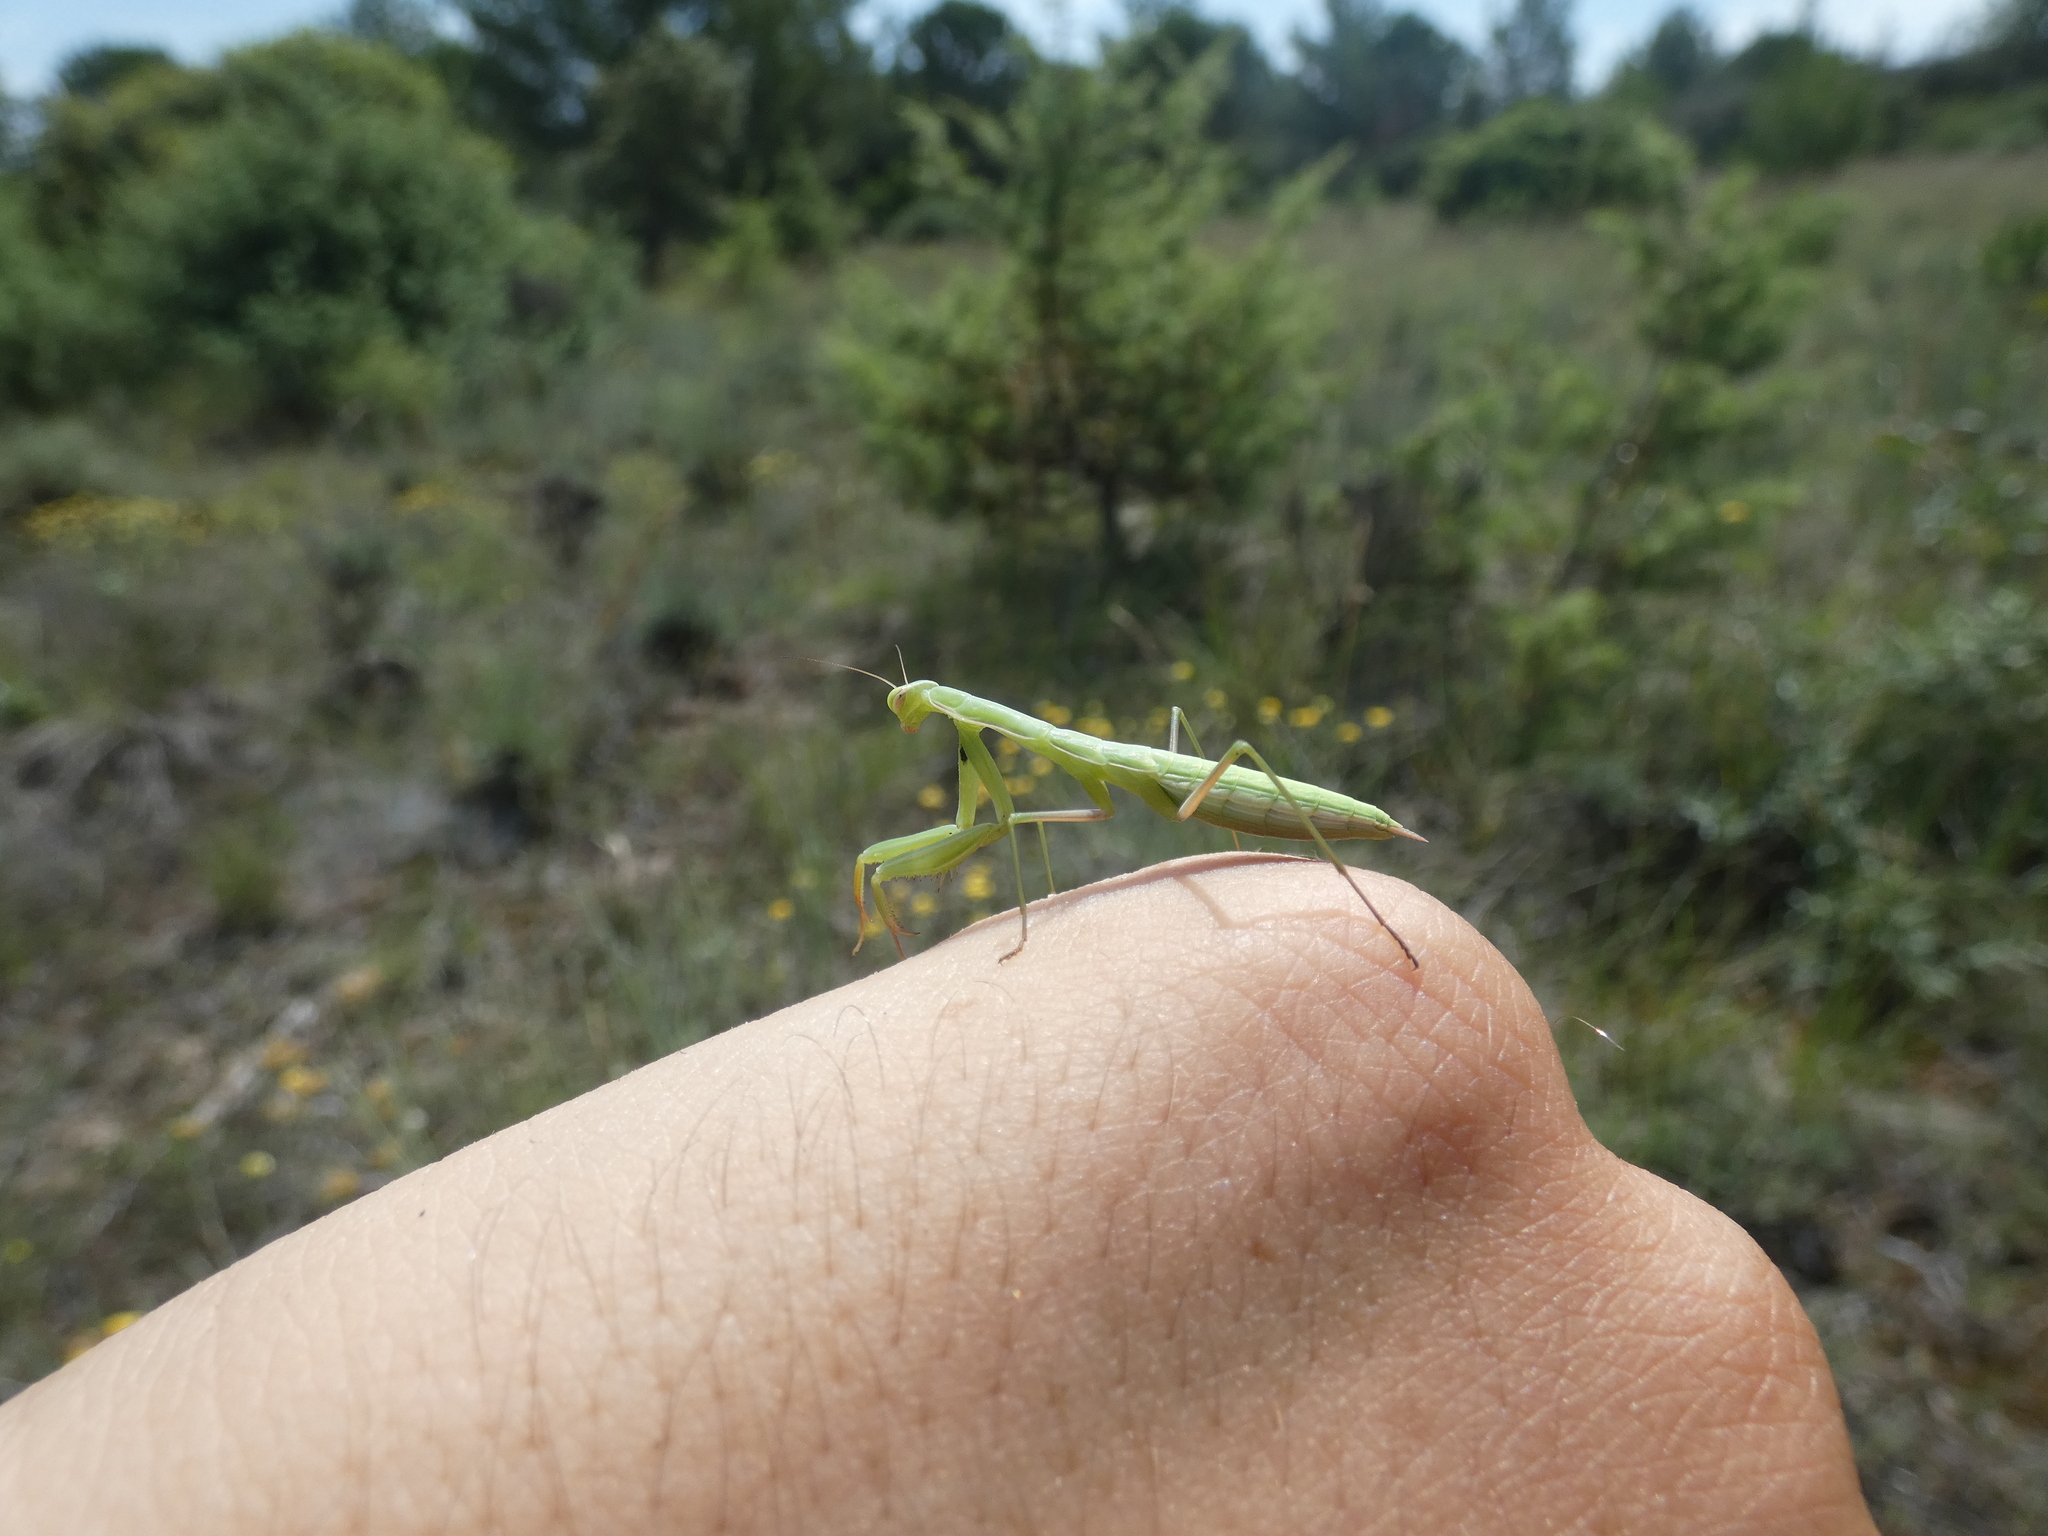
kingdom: Animalia
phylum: Arthropoda
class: Insecta
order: Mantodea
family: Mantidae
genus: Mantis
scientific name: Mantis religiosa
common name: Praying mantis
